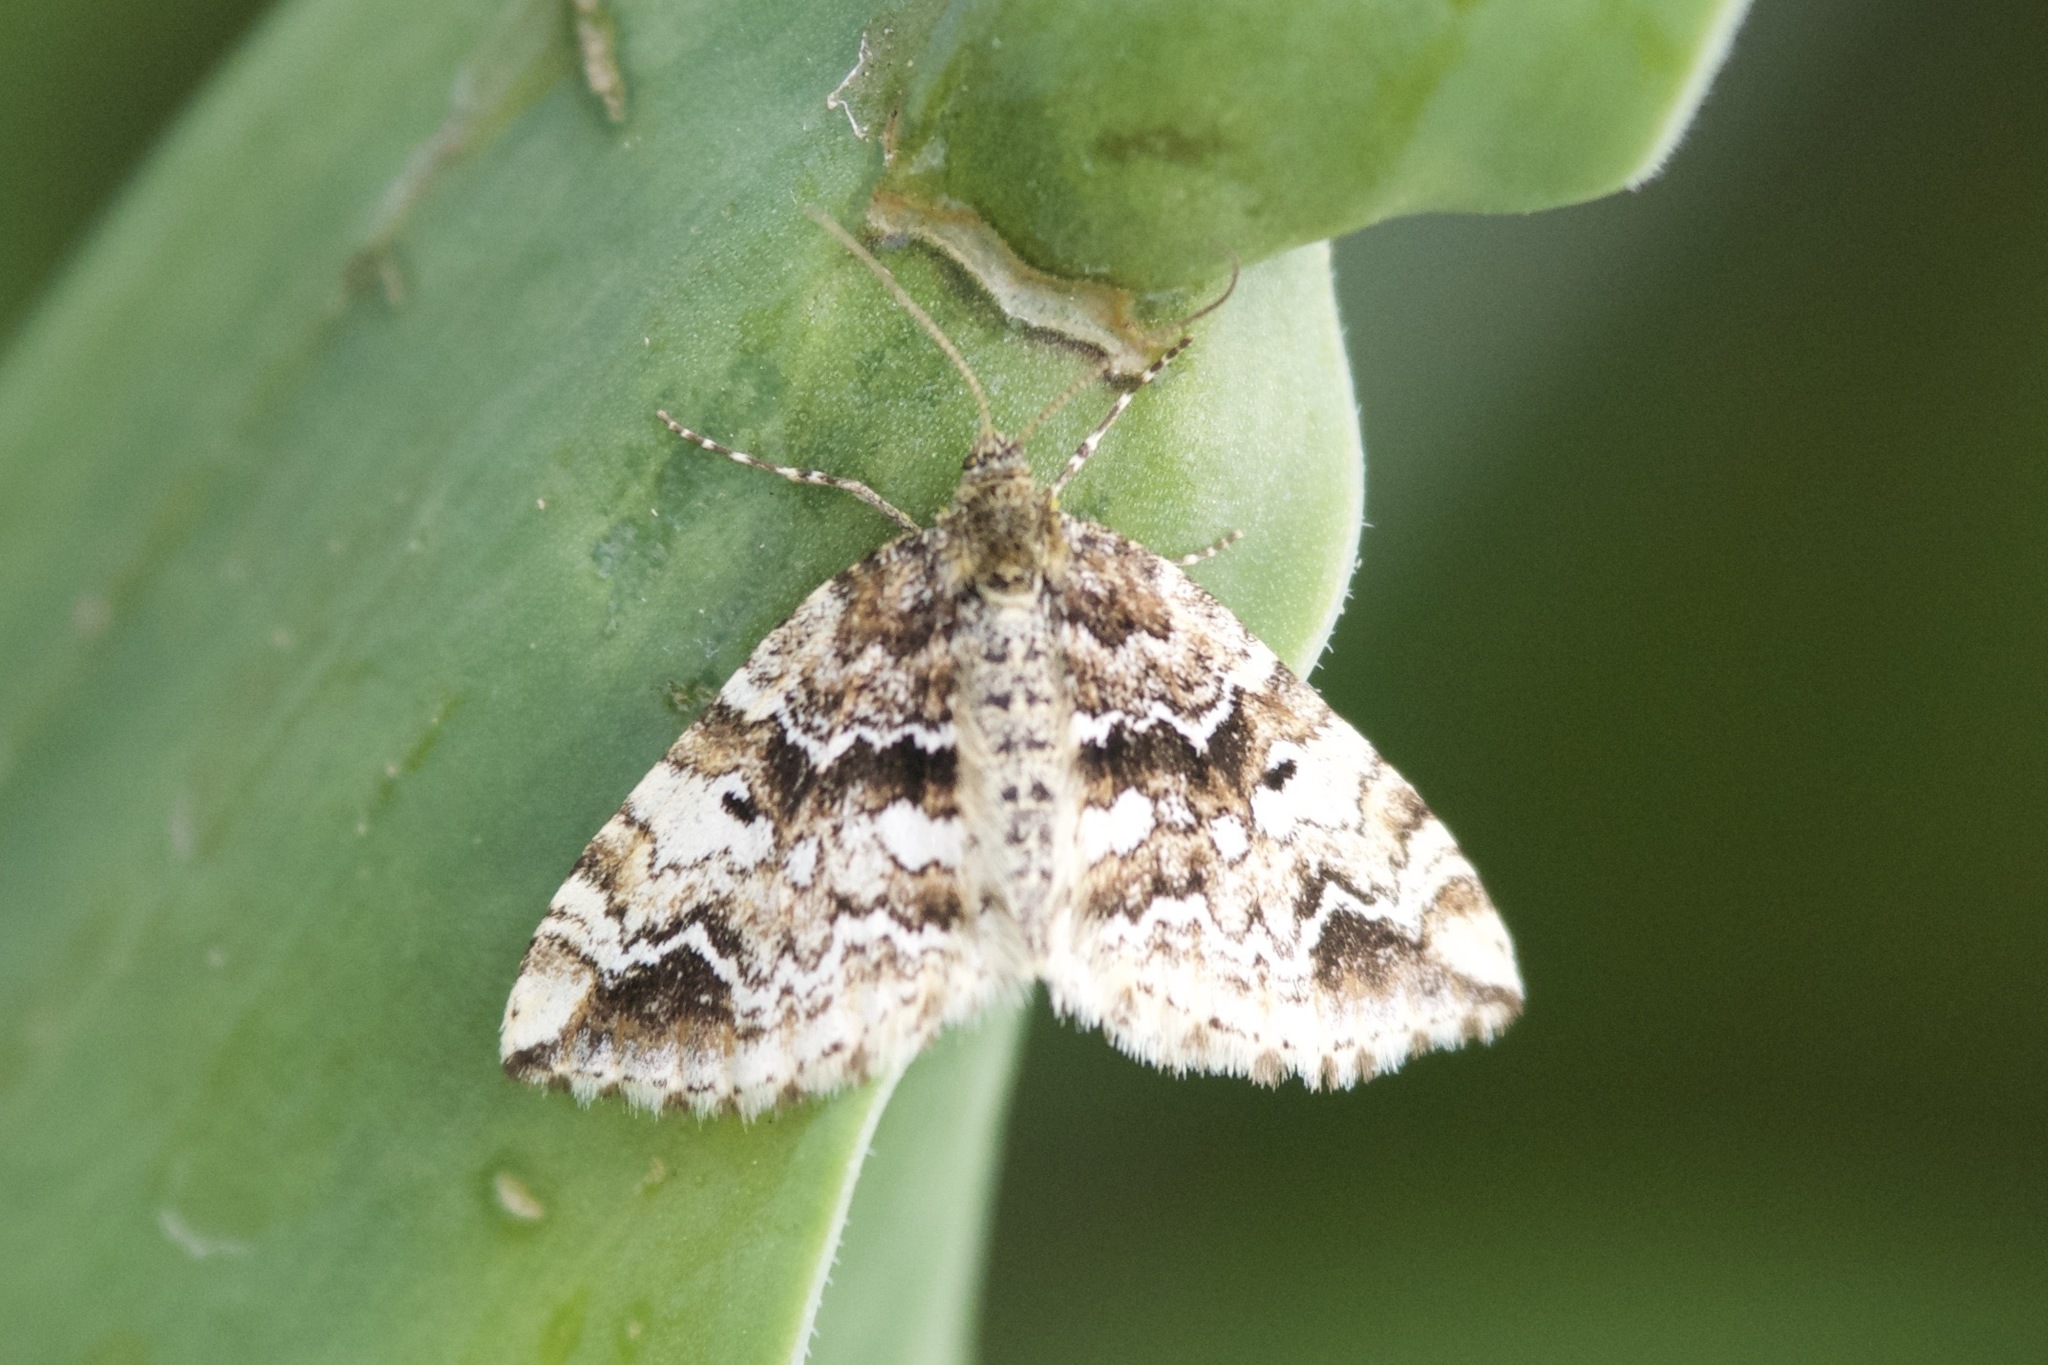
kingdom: Animalia
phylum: Arthropoda
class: Insecta
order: Lepidoptera
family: Geometridae
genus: Enchoria
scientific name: Enchoria lacteata
